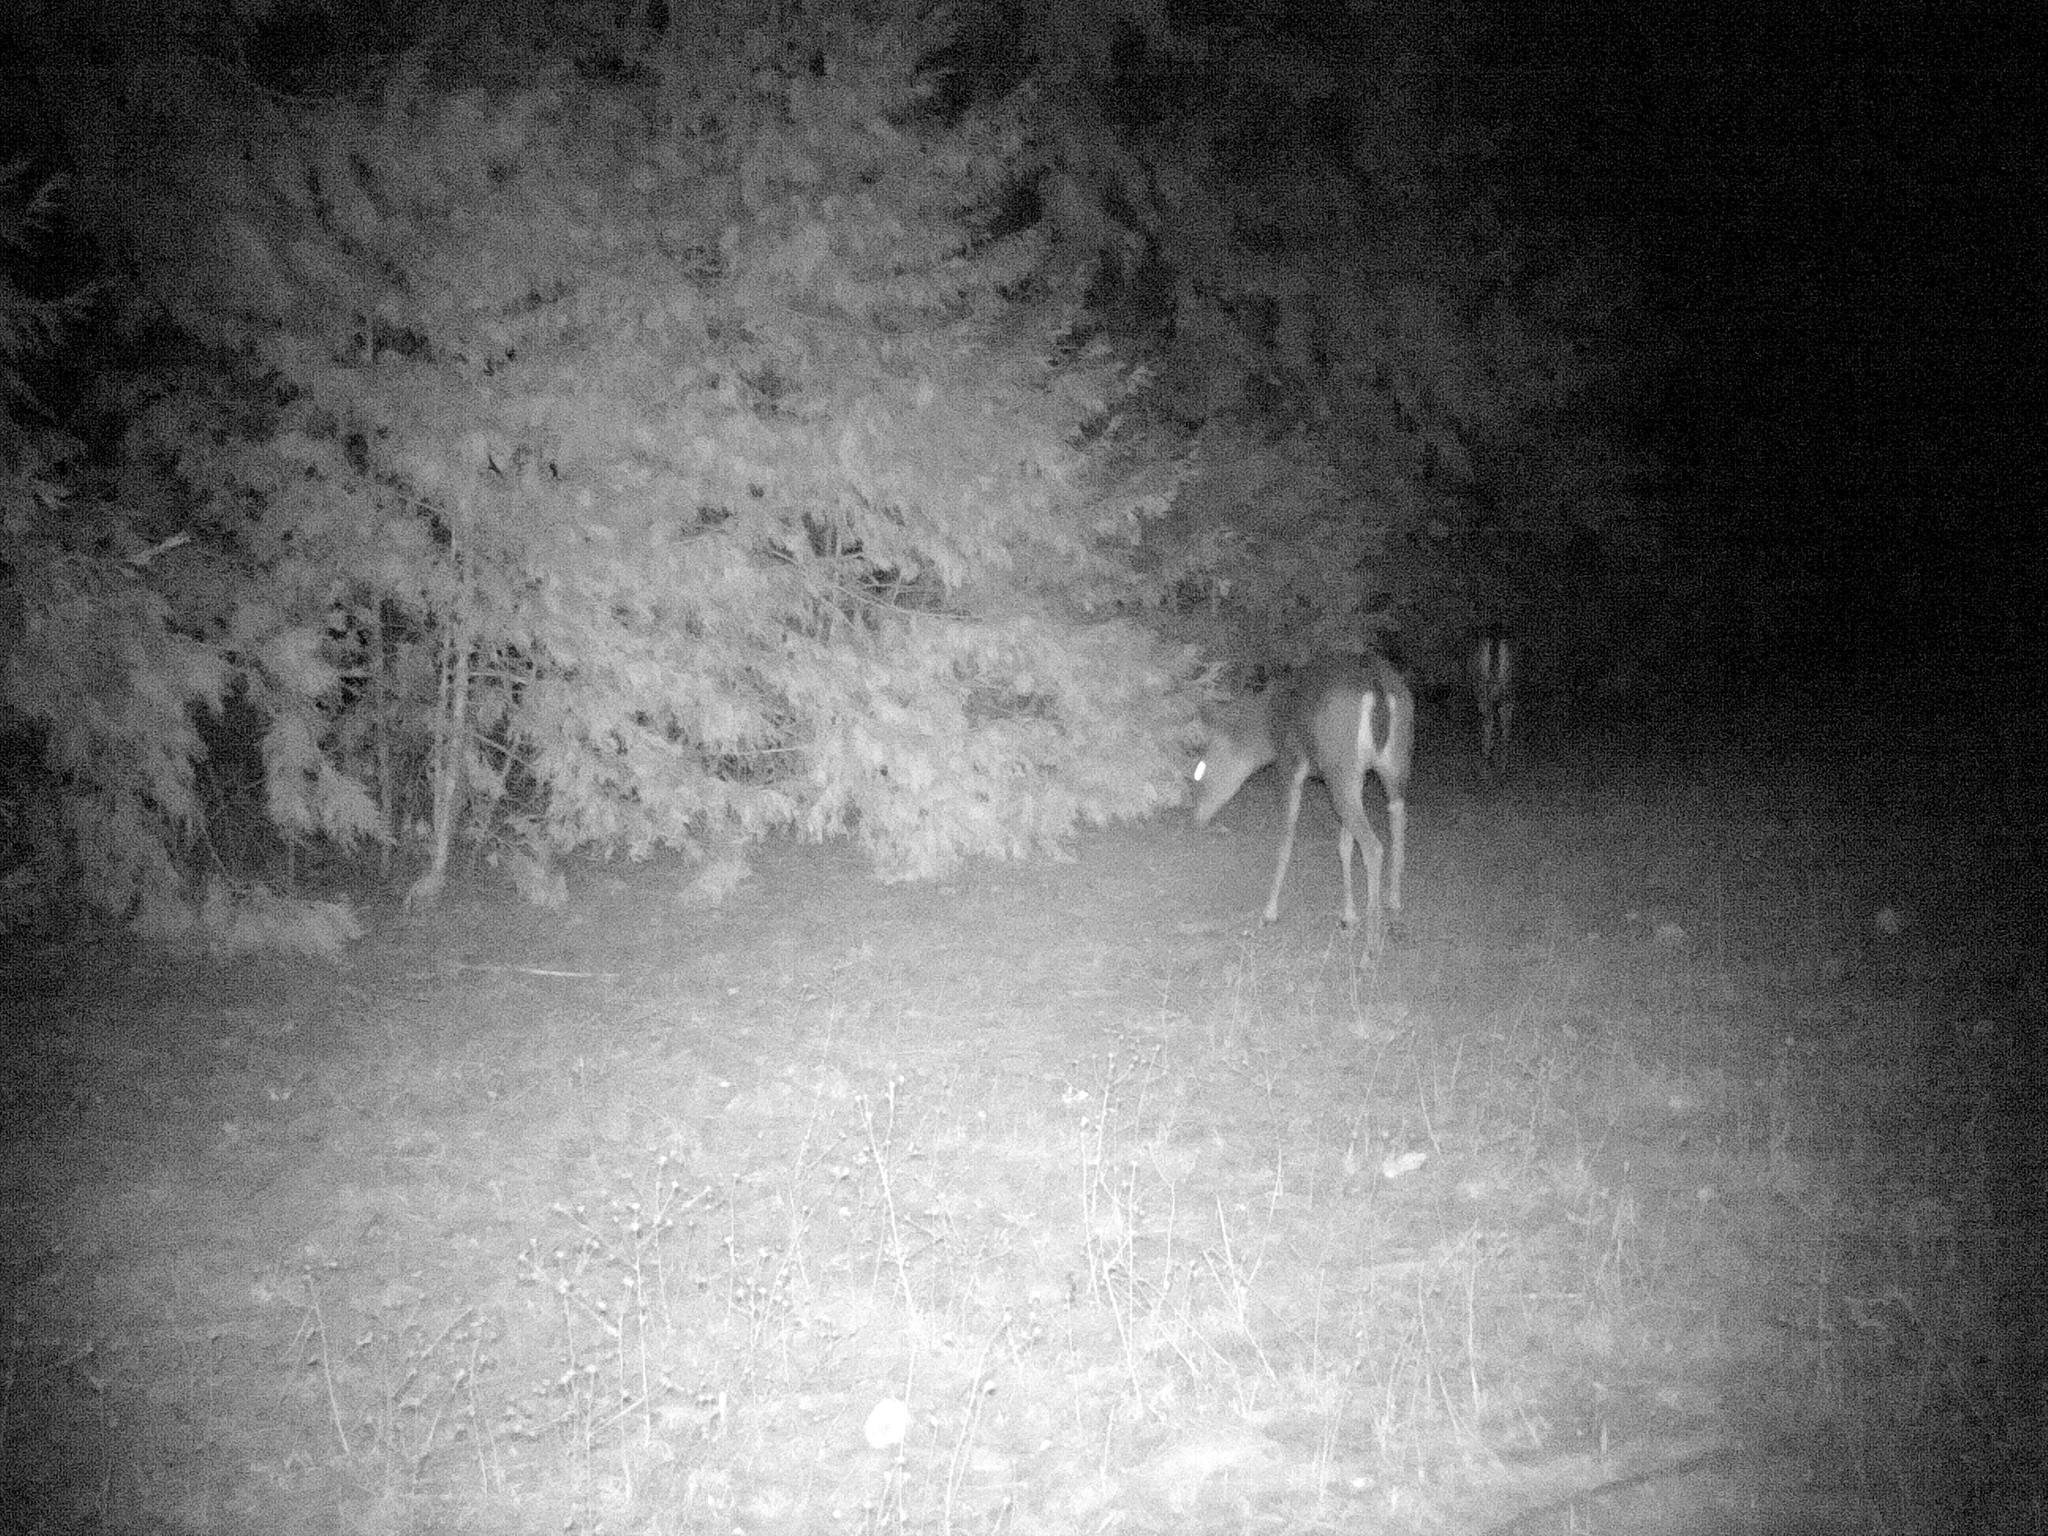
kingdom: Animalia
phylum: Chordata
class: Mammalia
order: Artiodactyla
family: Cervidae
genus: Odocoileus
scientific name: Odocoileus hemionus
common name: Mule deer
